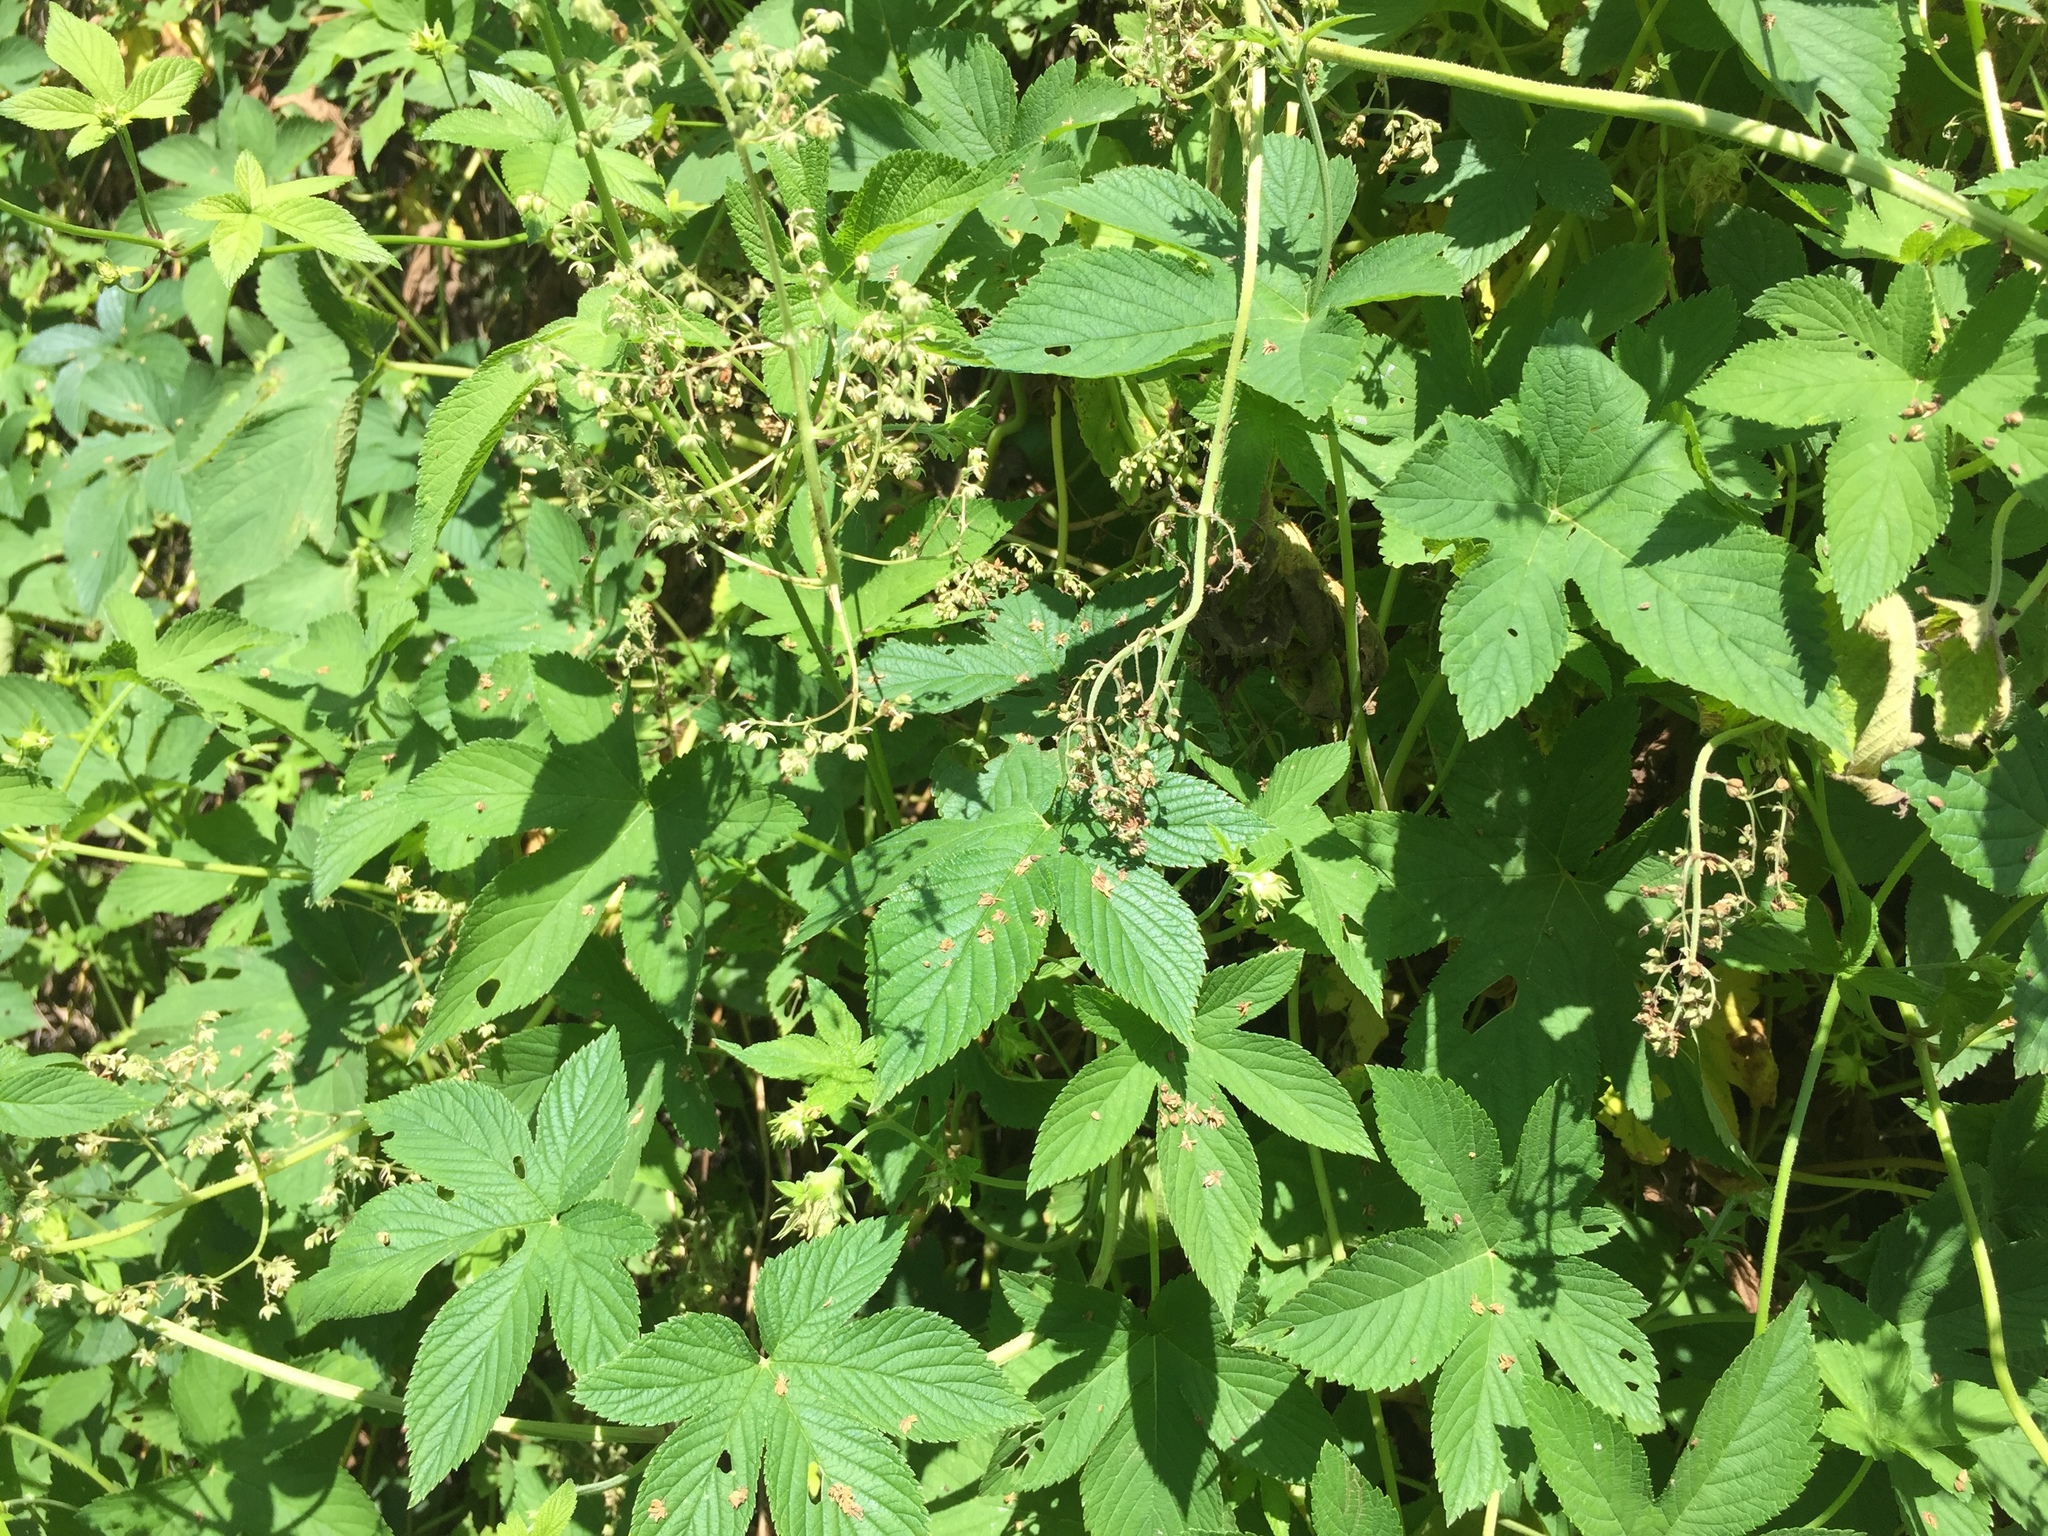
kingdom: Plantae
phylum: Tracheophyta
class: Magnoliopsida
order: Rosales
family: Cannabaceae
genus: Humulus
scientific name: Humulus scandens
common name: Japanese hop
